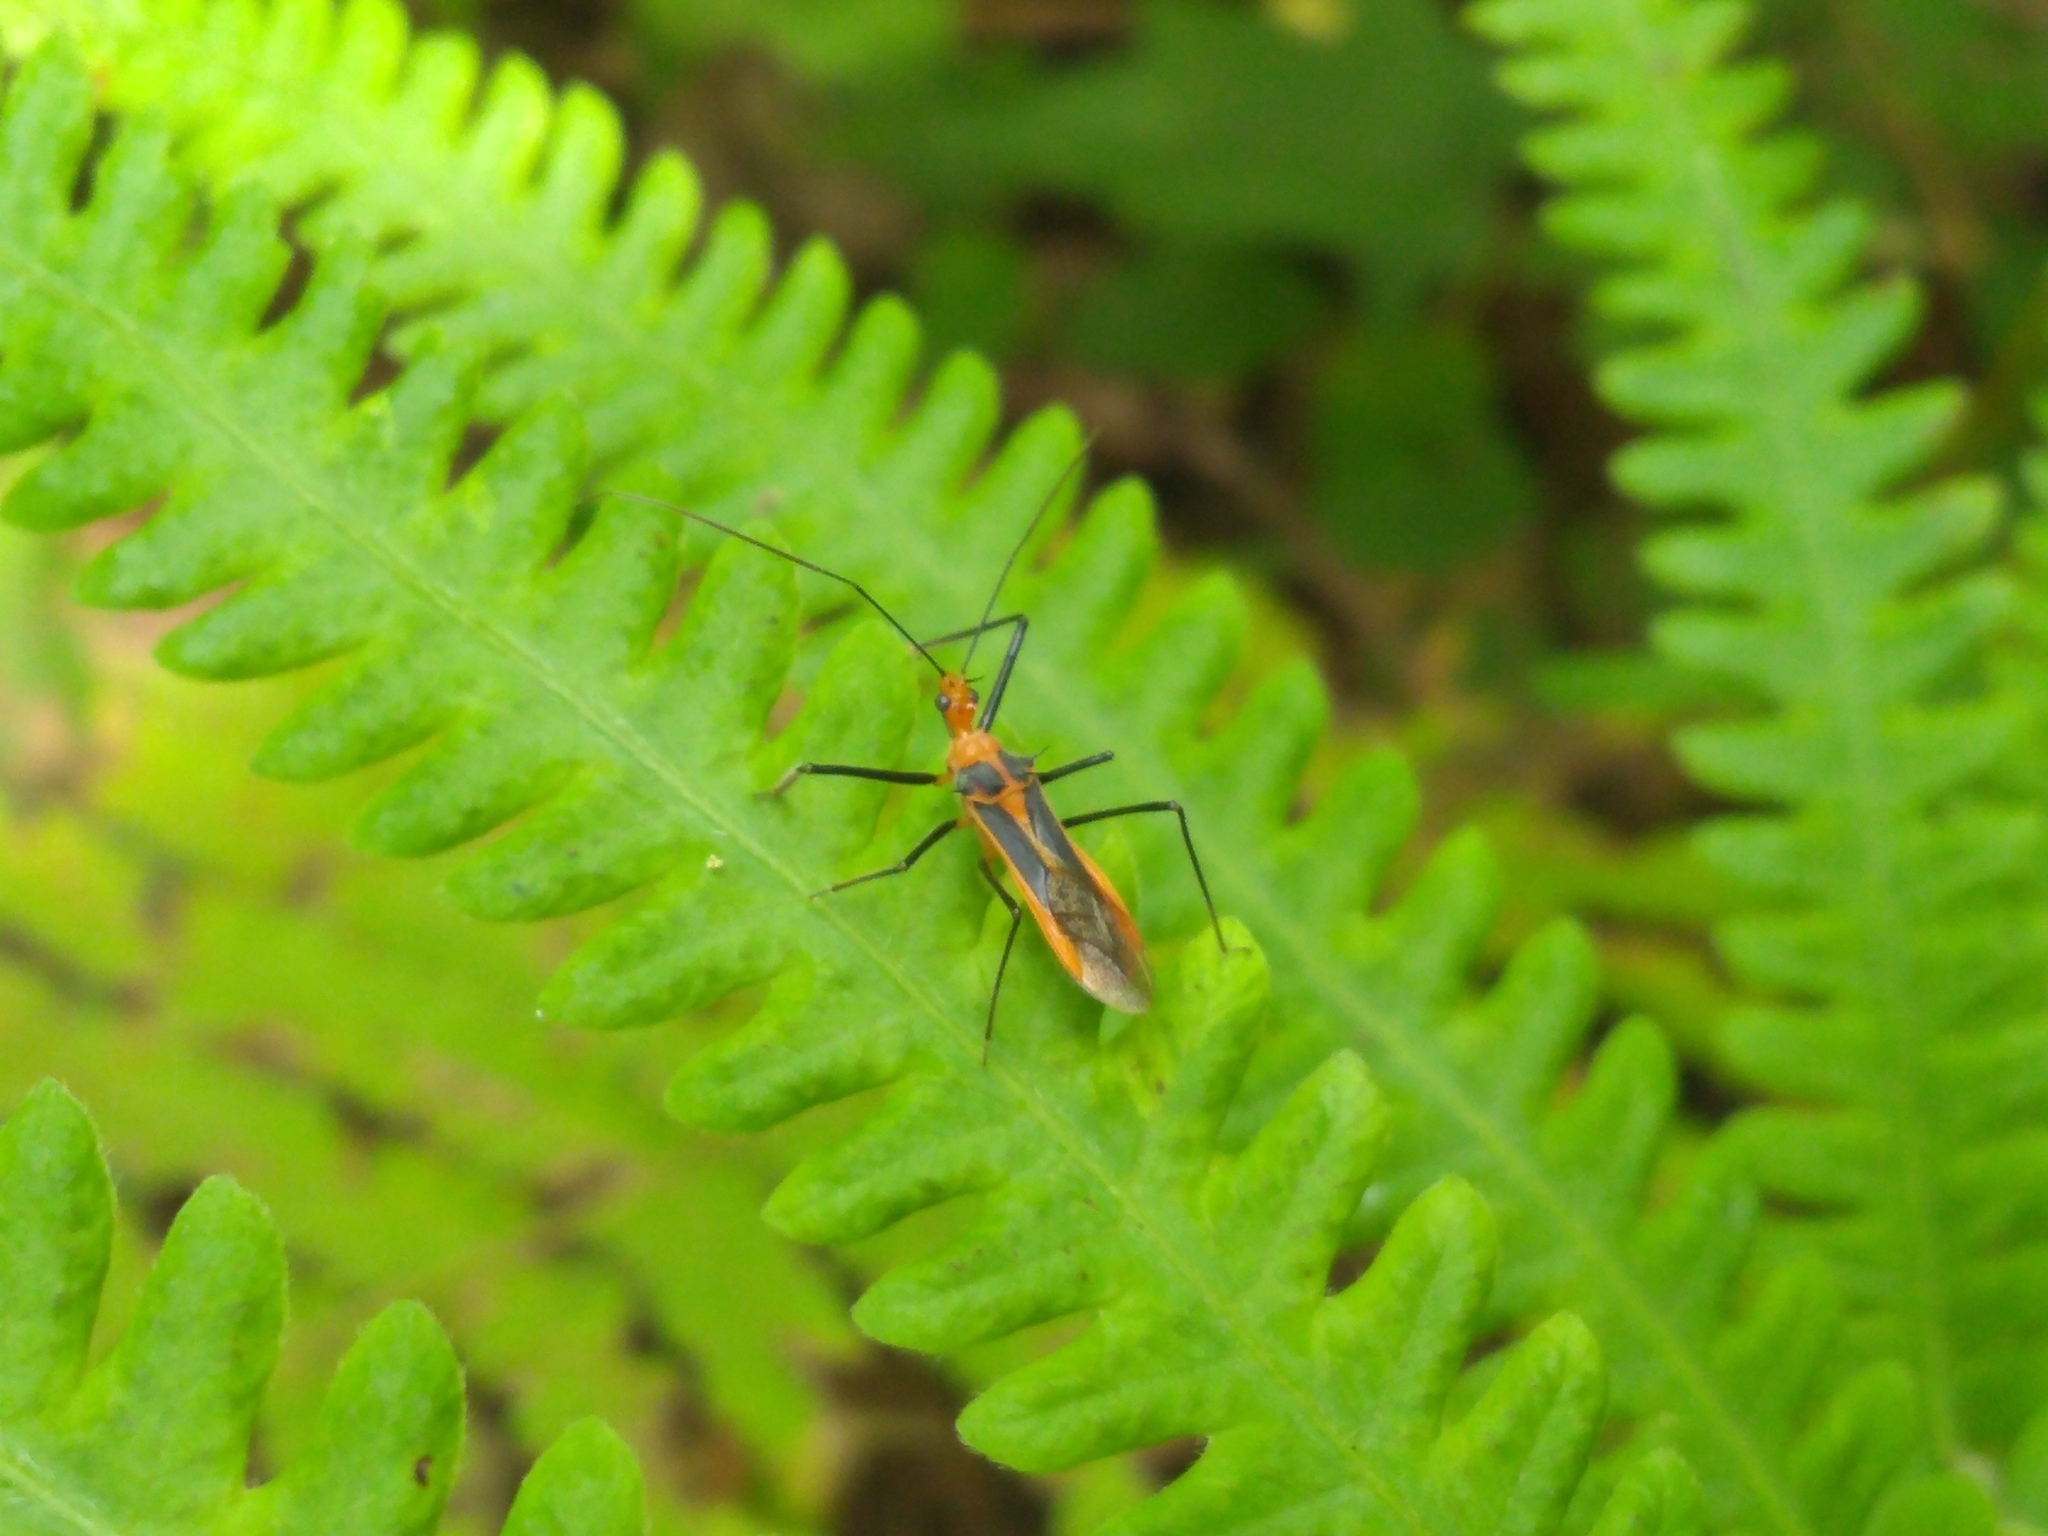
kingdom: Animalia
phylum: Arthropoda
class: Insecta
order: Hemiptera
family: Reduviidae
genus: Repipta
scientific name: Repipta taurus
